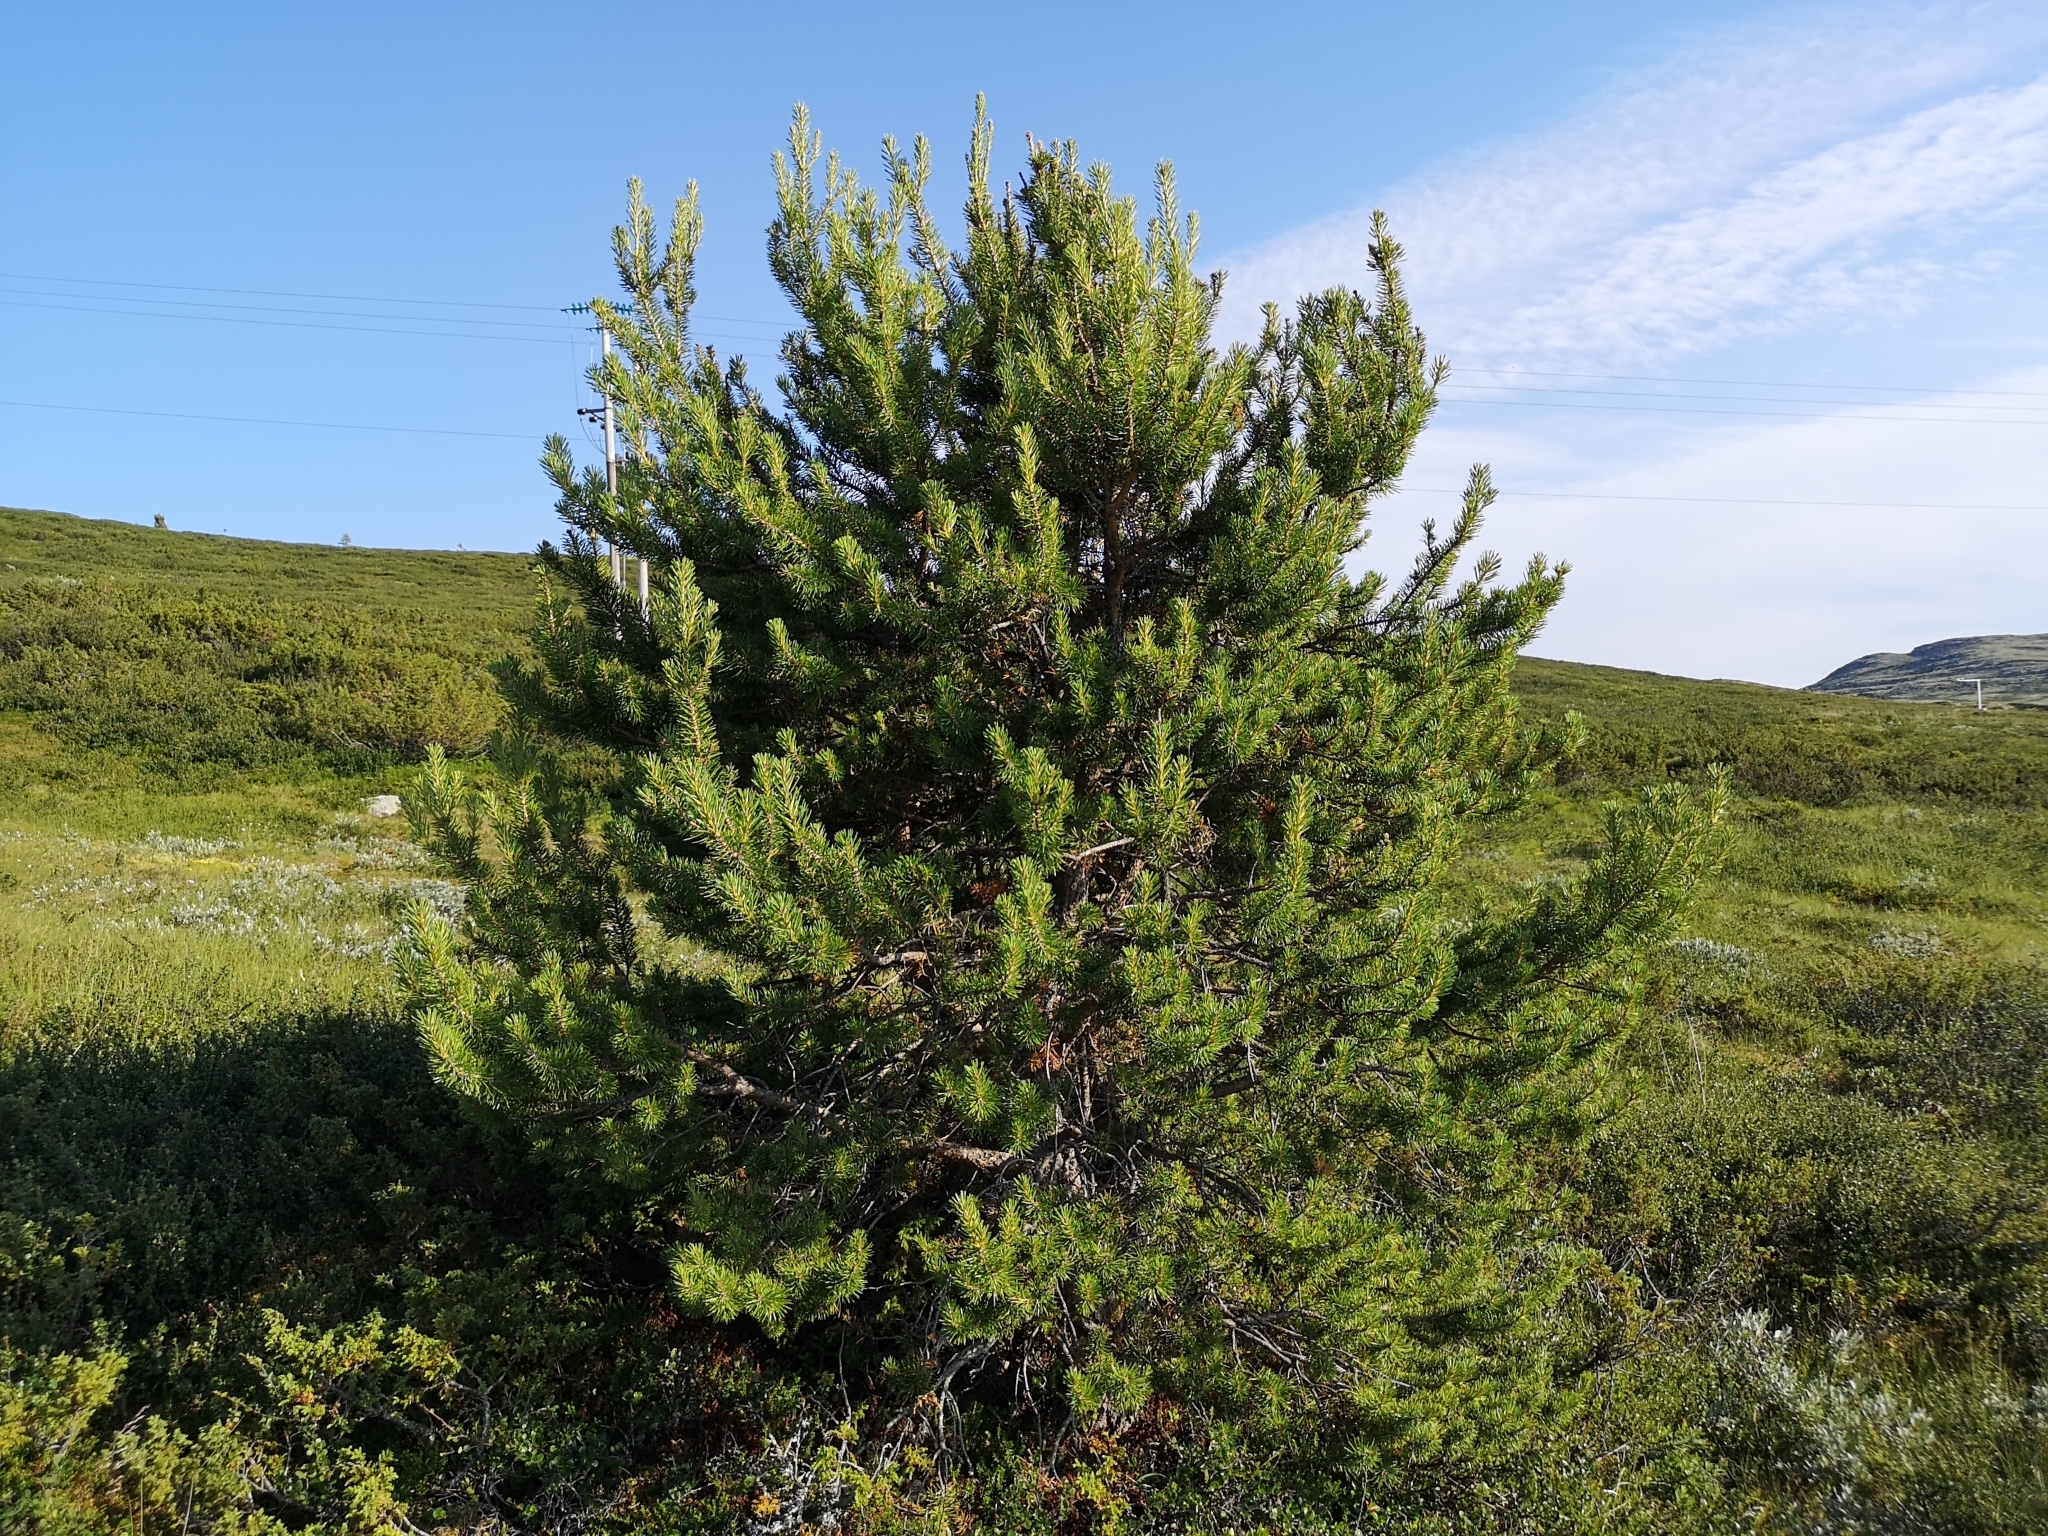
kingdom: Plantae
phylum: Tracheophyta
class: Pinopsida
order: Pinales
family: Pinaceae
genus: Pinus
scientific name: Pinus sylvestris
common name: Scots pine
